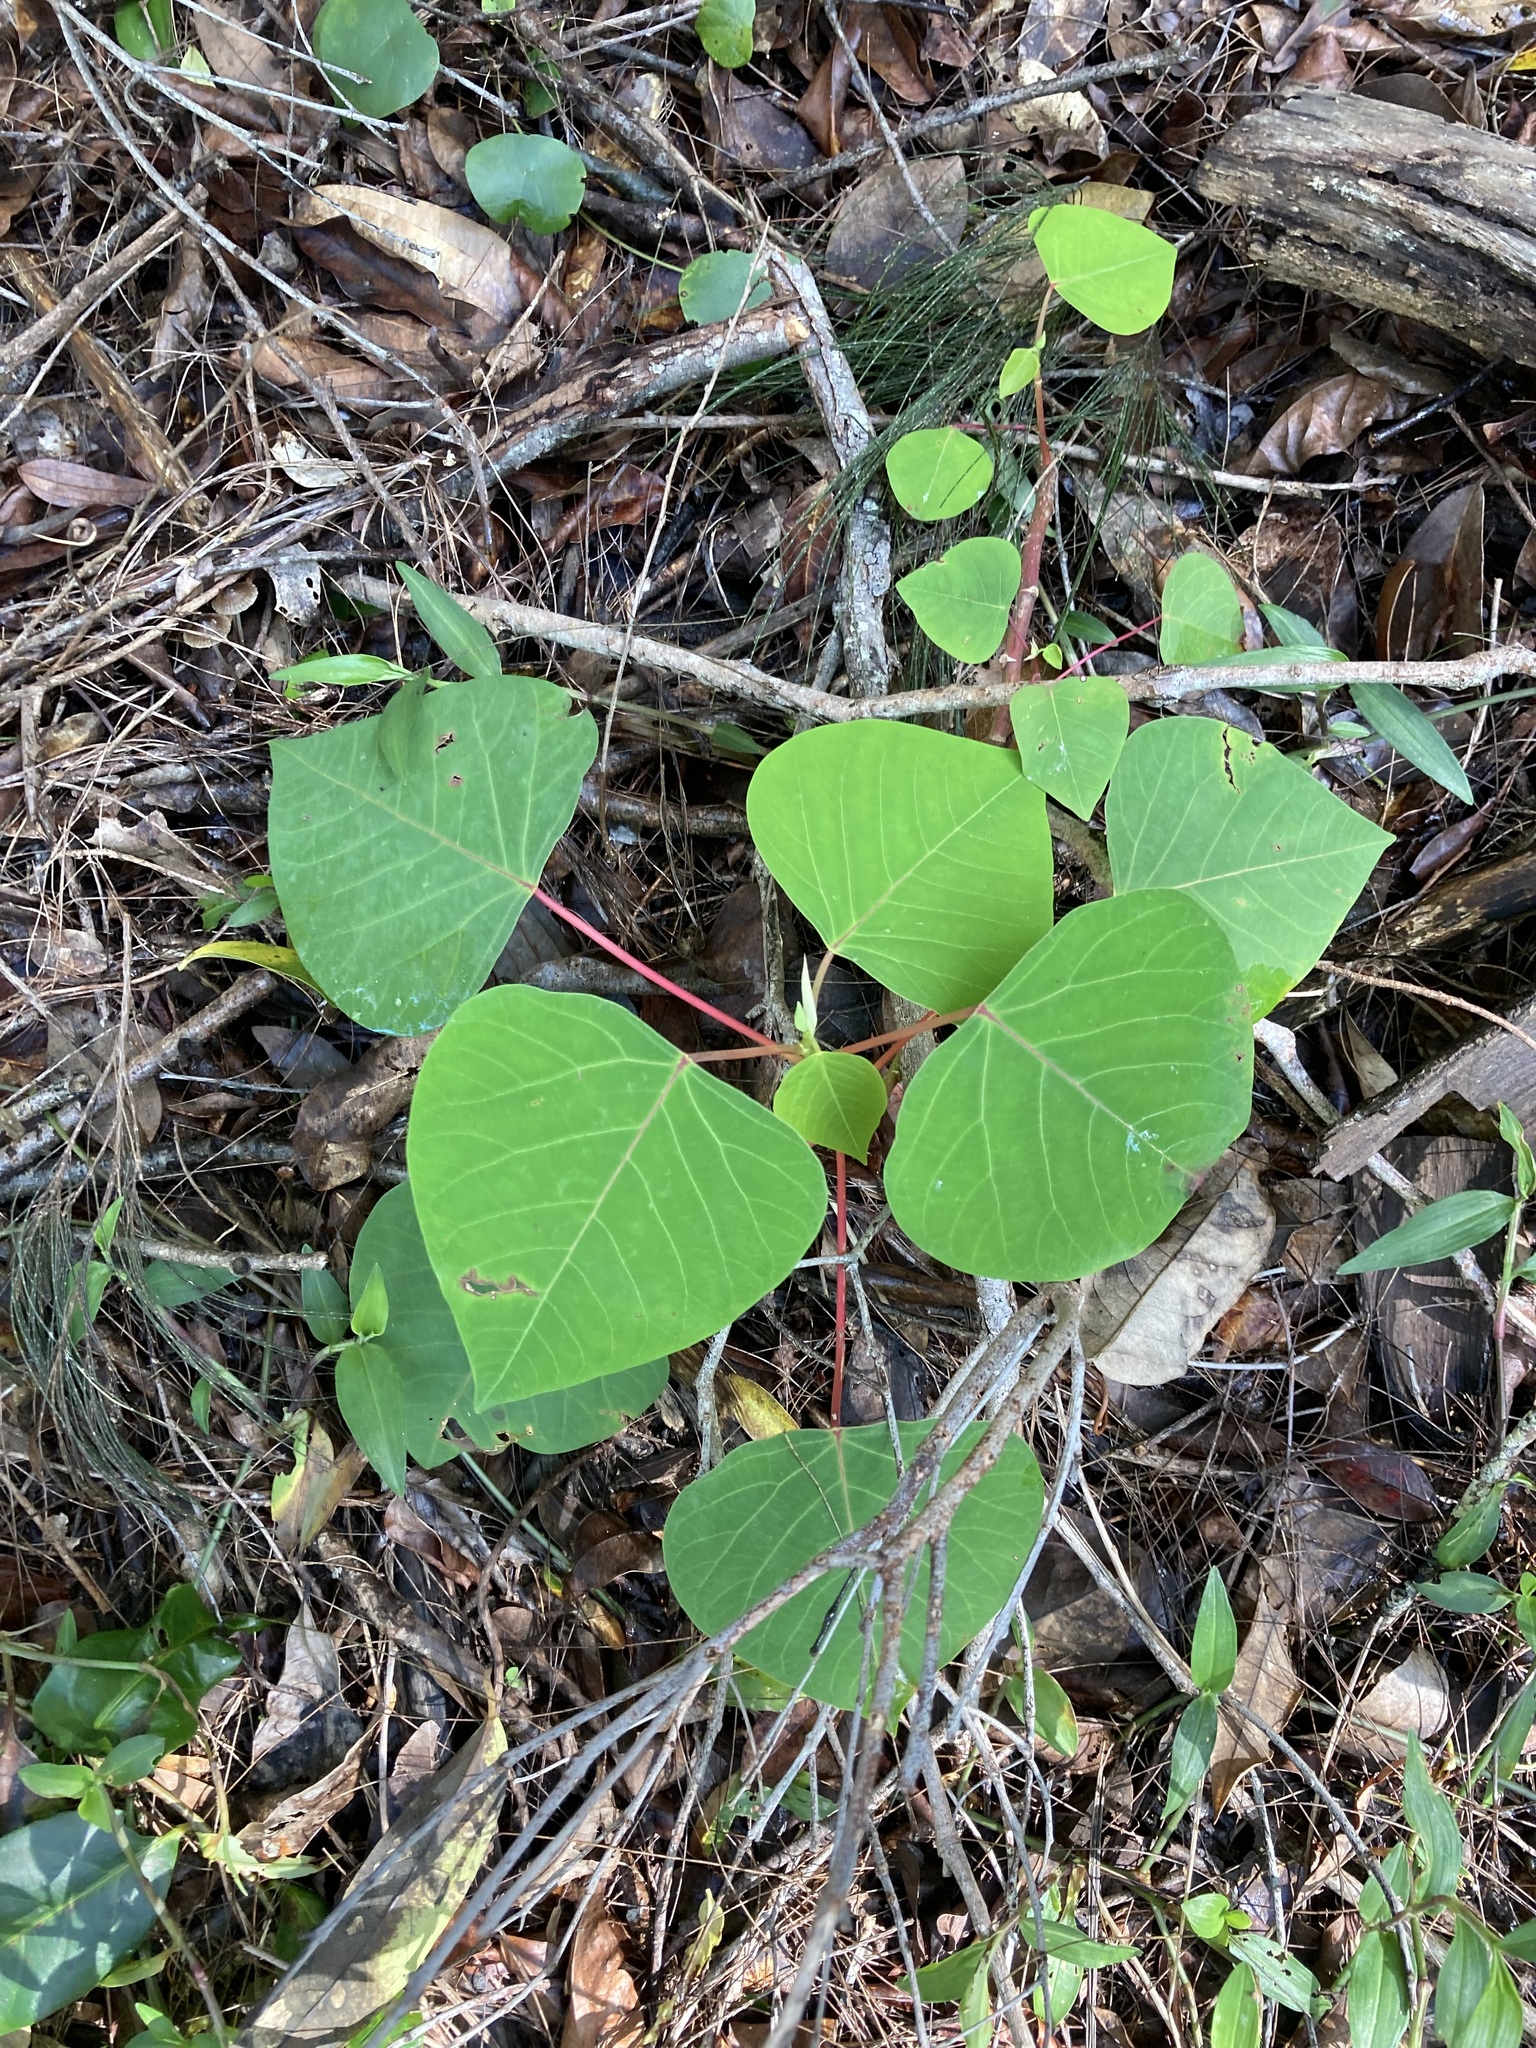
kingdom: Plantae
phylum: Tracheophyta
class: Magnoliopsida
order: Malpighiales
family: Euphorbiaceae
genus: Homalanthus
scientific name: Homalanthus populifolius
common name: Queensland poplar
